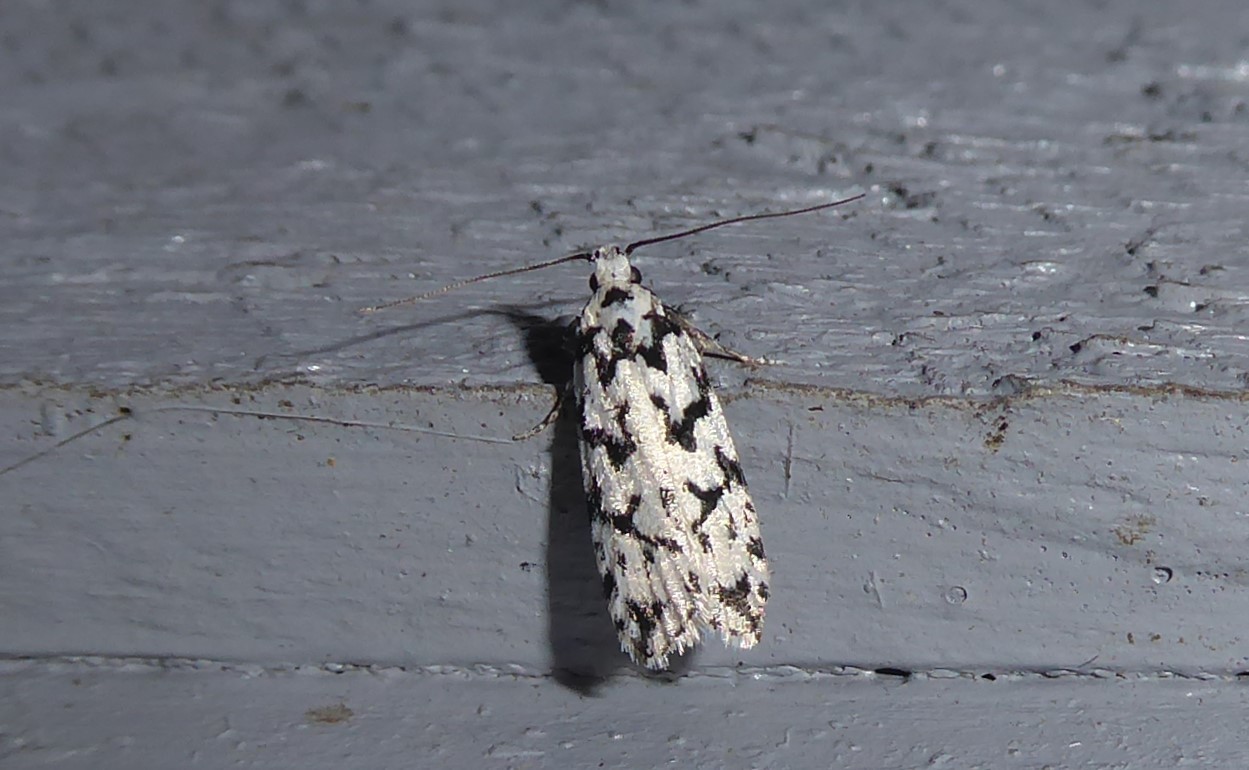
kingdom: Animalia
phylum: Arthropoda
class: Insecta
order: Lepidoptera
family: Oecophoridae
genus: Izatha
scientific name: Izatha katadiktya
